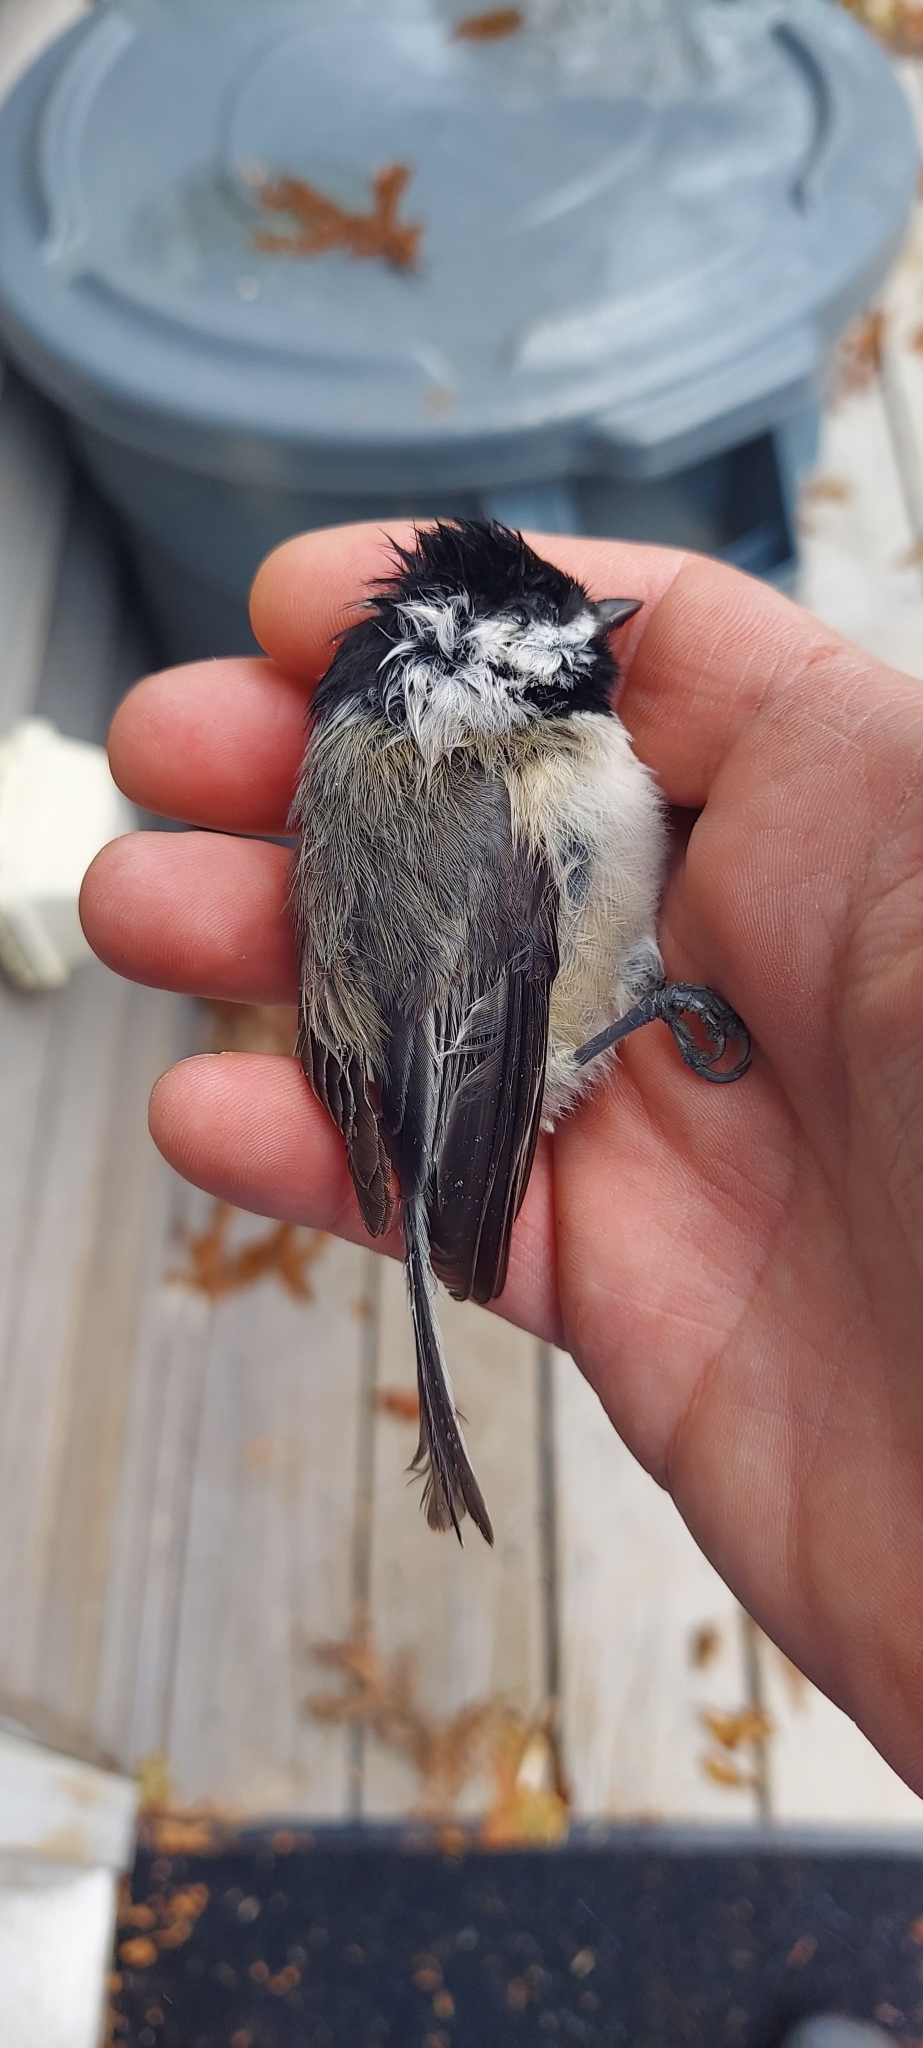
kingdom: Animalia
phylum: Chordata
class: Aves
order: Passeriformes
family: Paridae
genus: Poecile
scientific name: Poecile carolinensis
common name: Carolina chickadee
